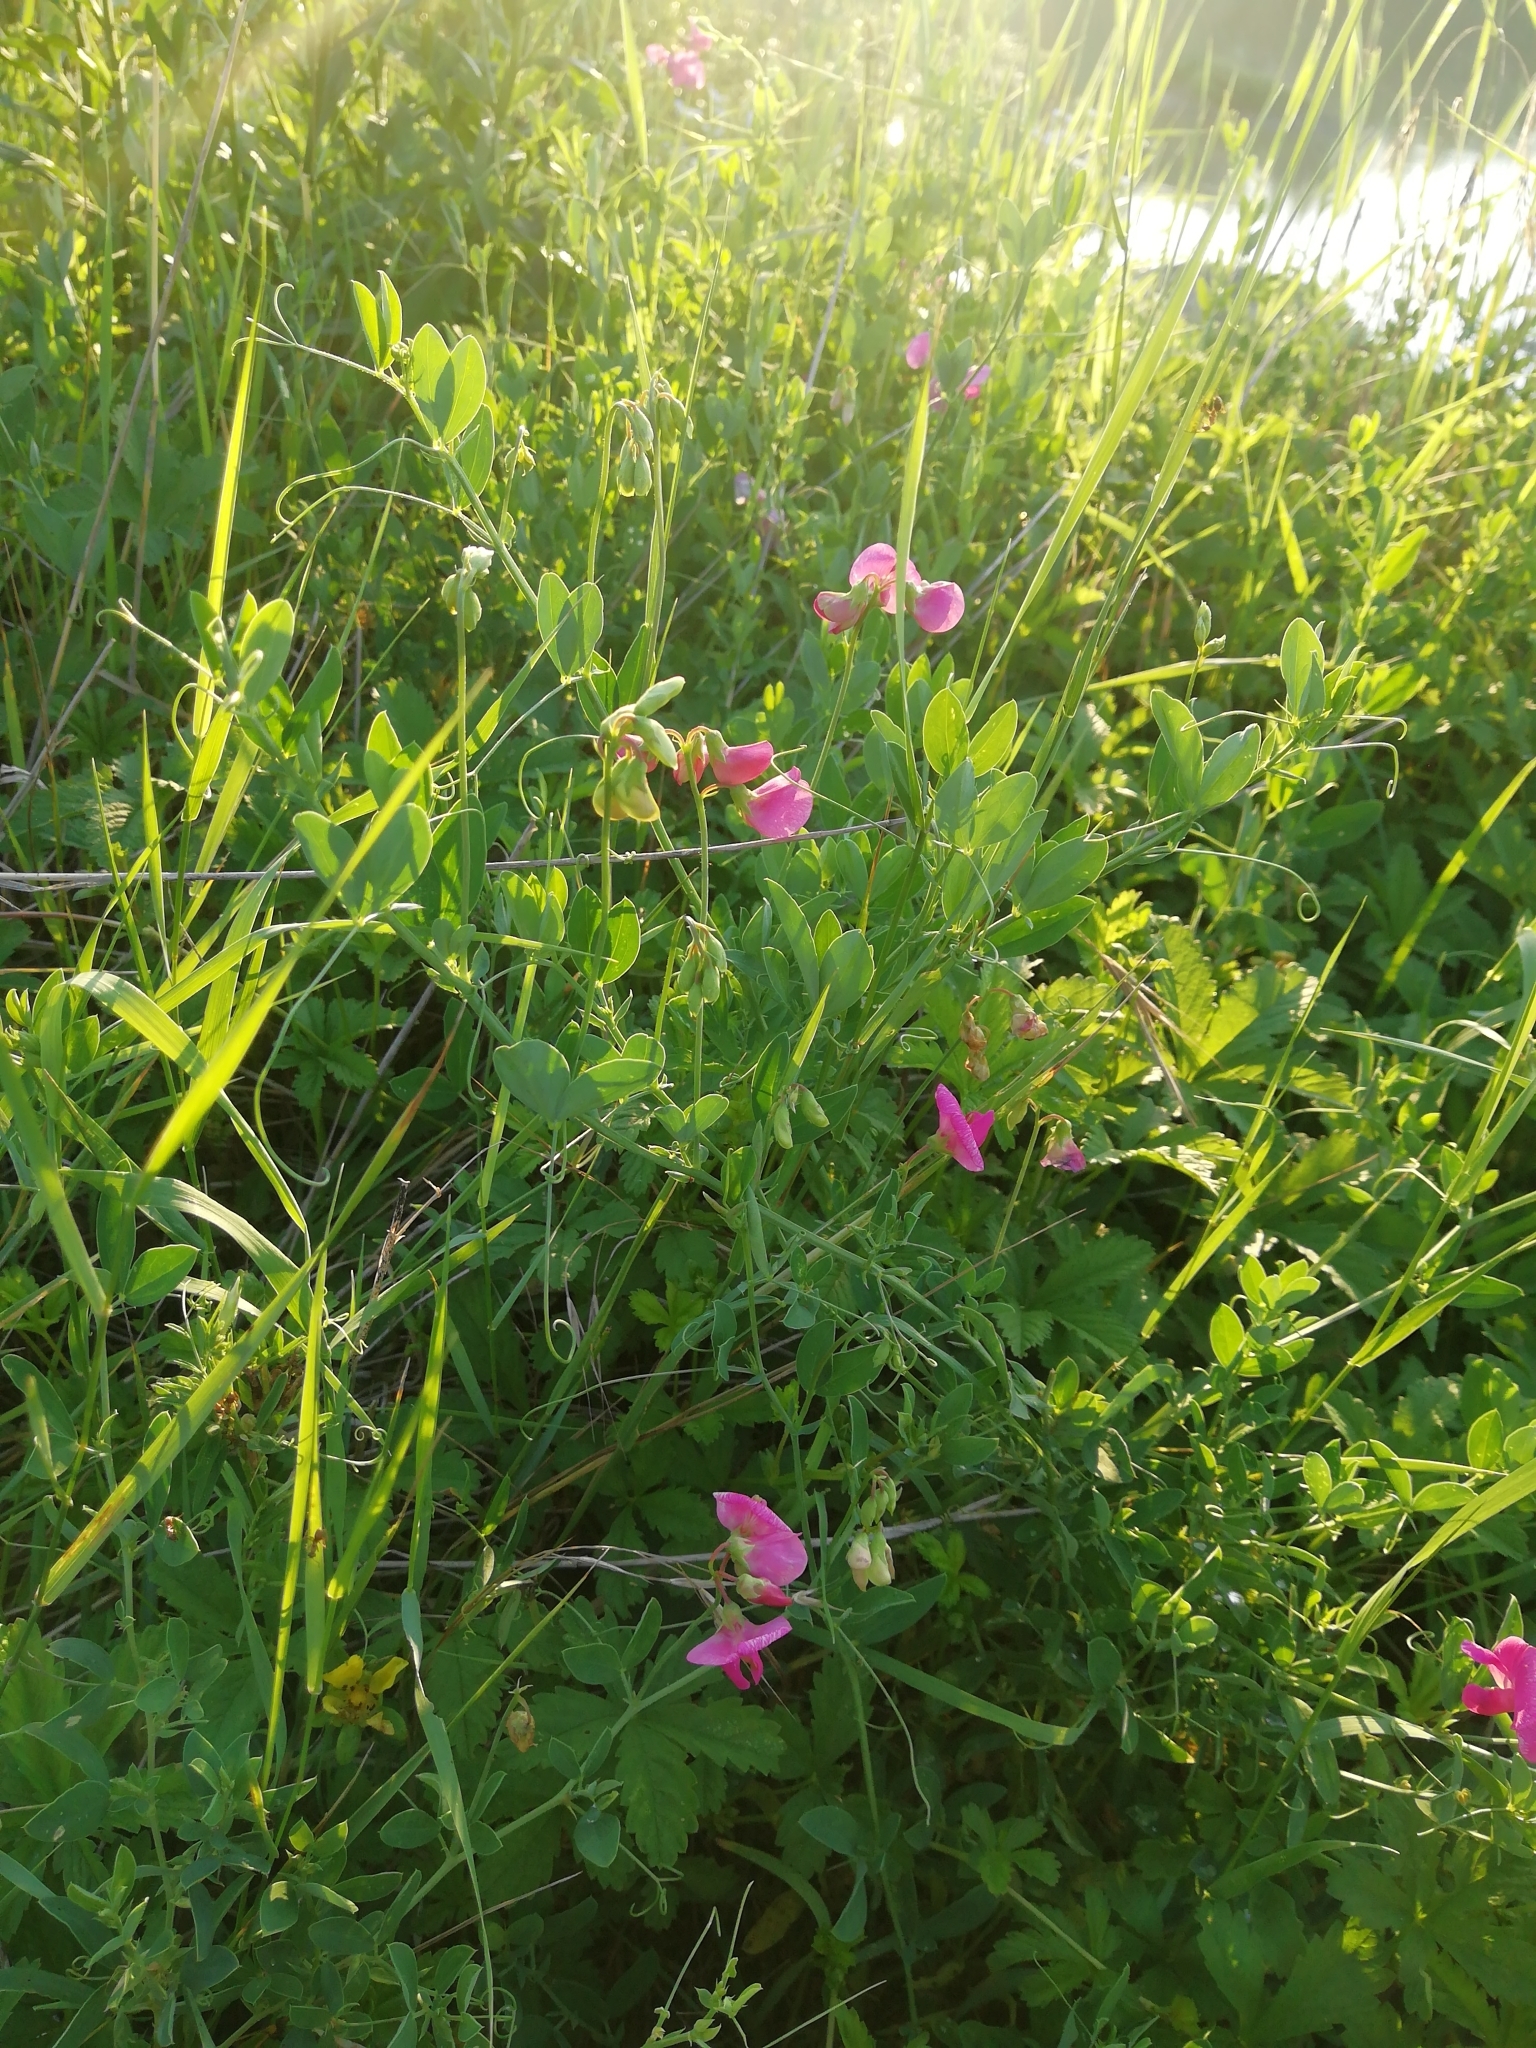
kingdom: Plantae
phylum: Tracheophyta
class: Magnoliopsida
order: Fabales
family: Fabaceae
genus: Lathyrus
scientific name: Lathyrus tuberosus
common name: Tuberous pea
